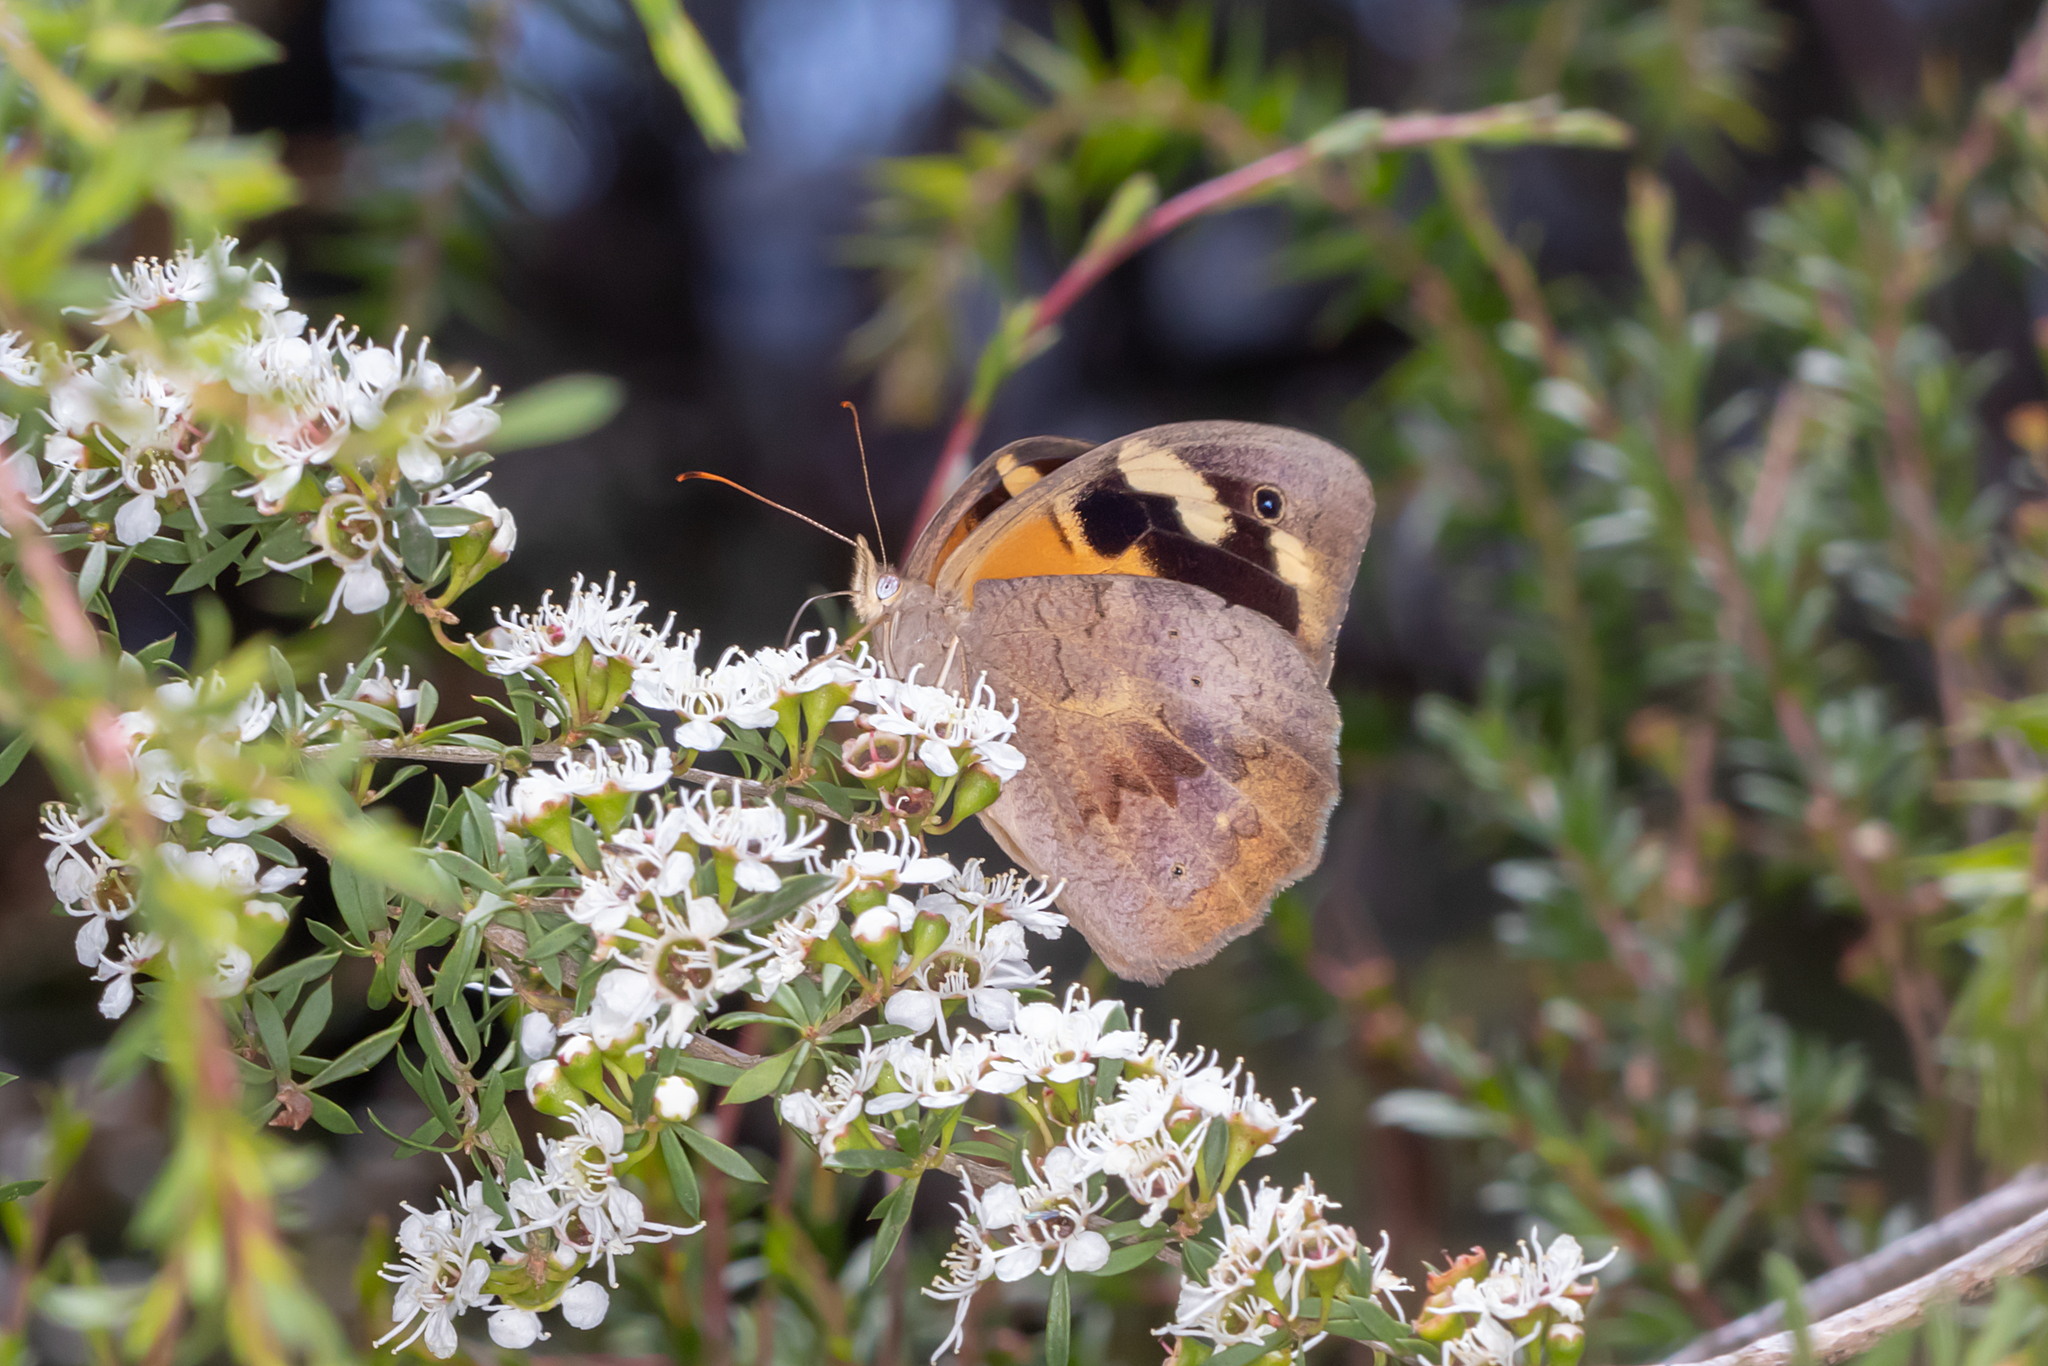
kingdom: Animalia
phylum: Arthropoda
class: Insecta
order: Lepidoptera
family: Nymphalidae
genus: Heteronympha
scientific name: Heteronympha merope
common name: Common brown
